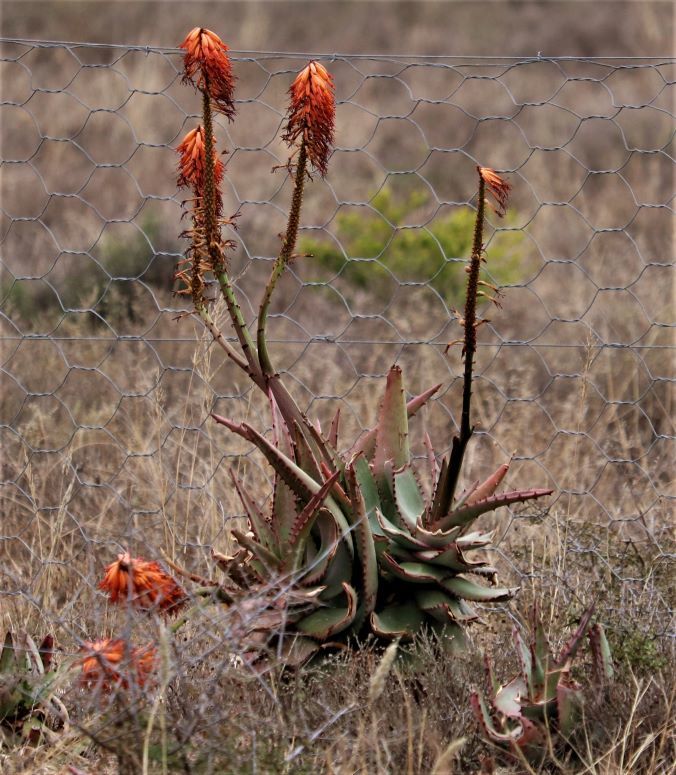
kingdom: Plantae
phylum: Tracheophyta
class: Liliopsida
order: Asparagales
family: Asphodelaceae
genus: Aloe
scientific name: Aloe ferox
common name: Bitter aloe
